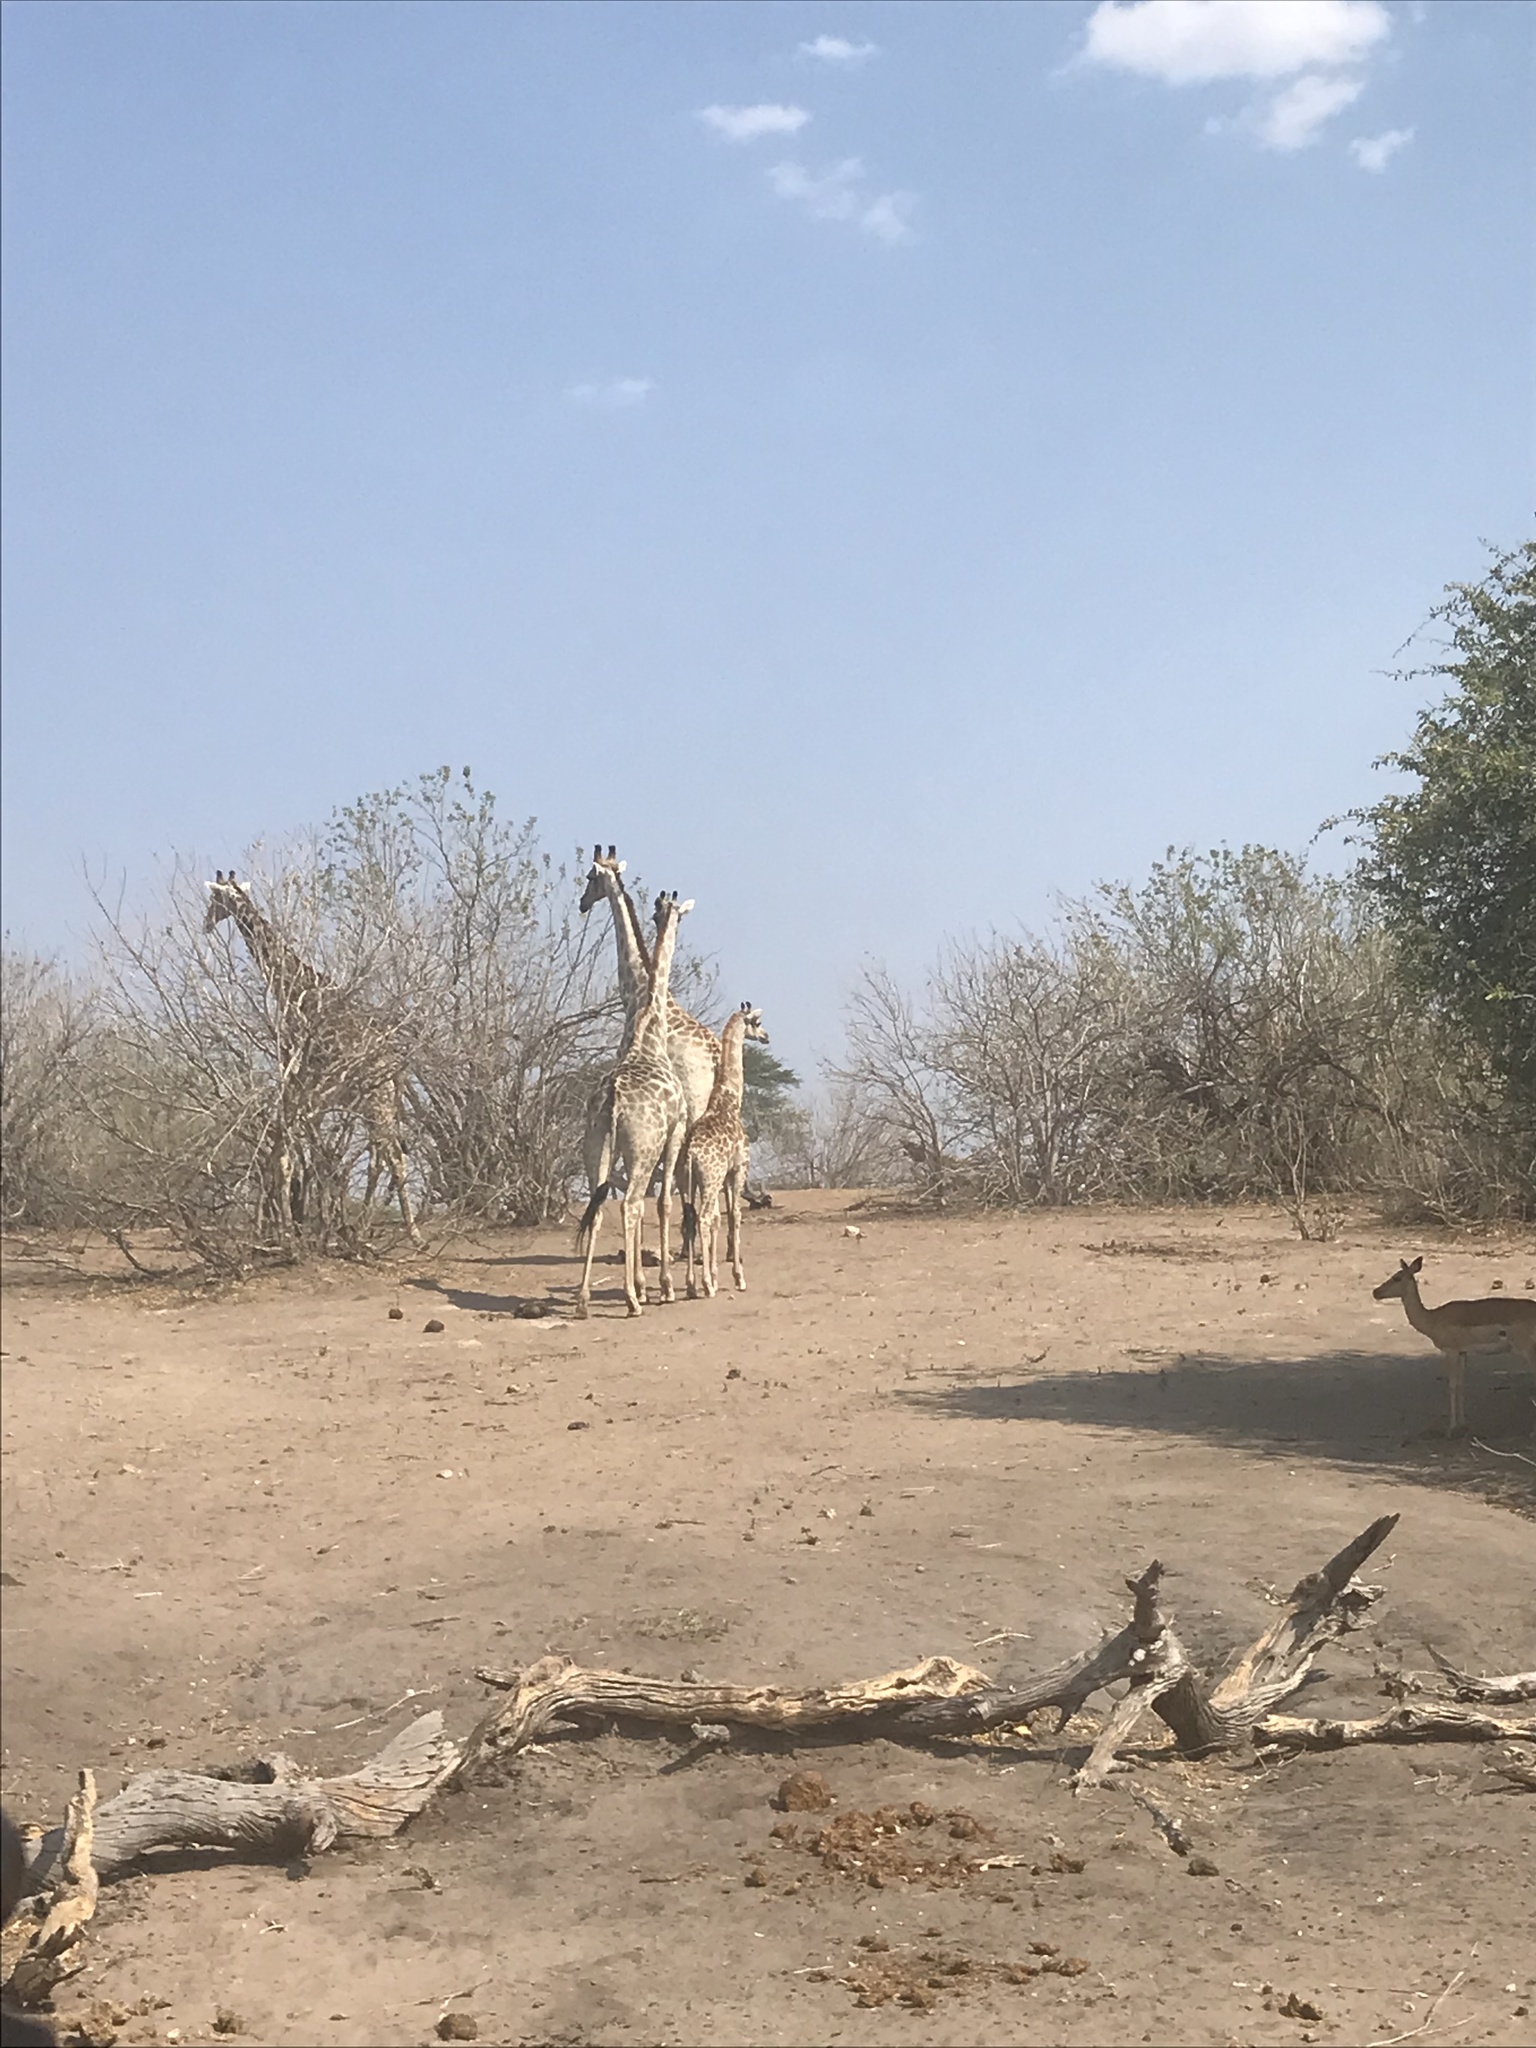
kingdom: Animalia
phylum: Chordata
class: Mammalia
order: Artiodactyla
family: Giraffidae
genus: Giraffa
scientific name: Giraffa giraffa
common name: Southern giraffe
